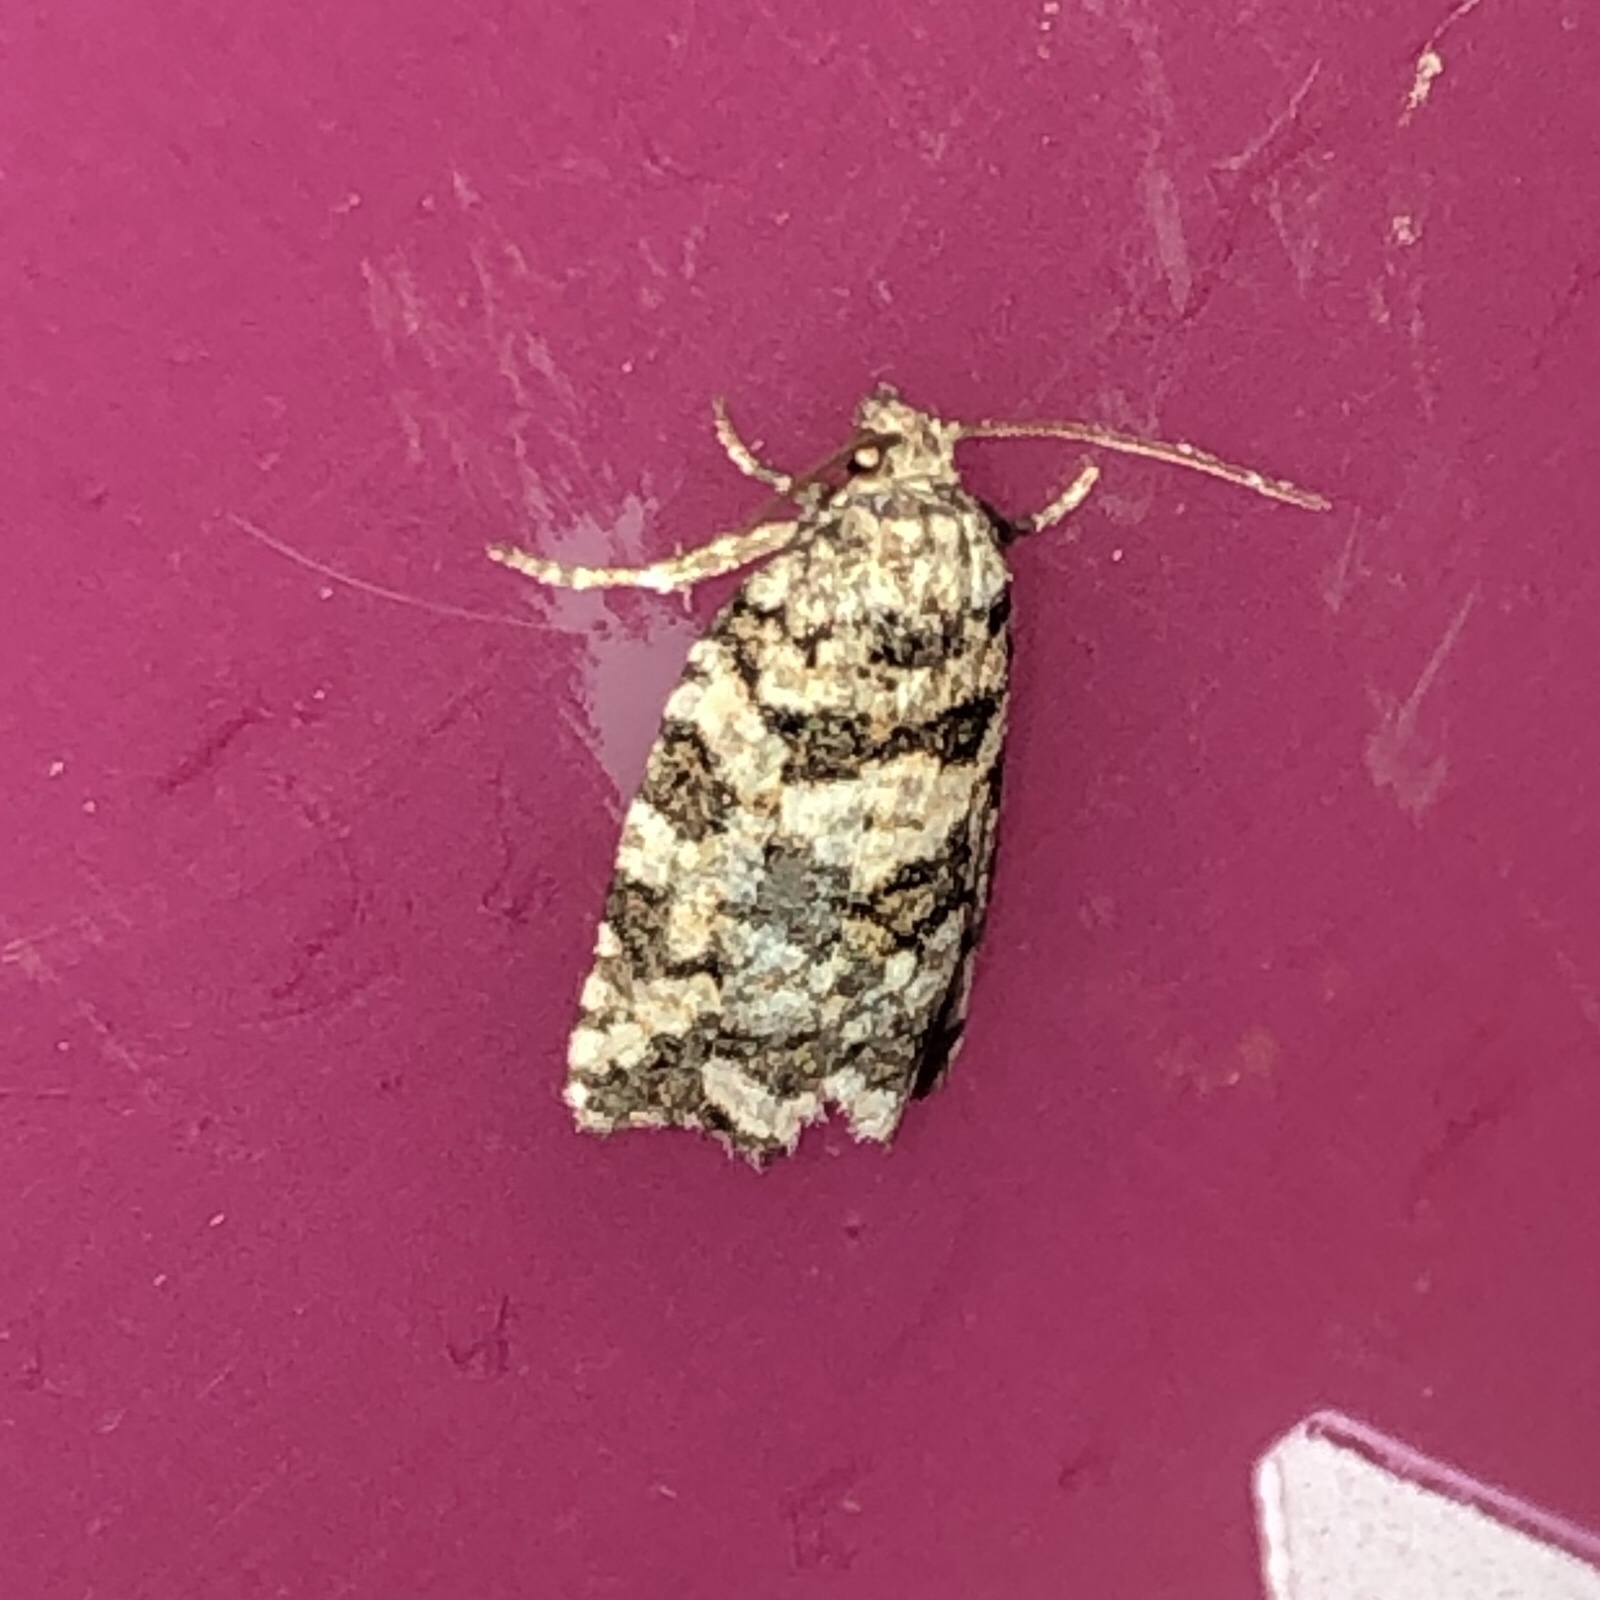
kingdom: Animalia
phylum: Arthropoda
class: Insecta
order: Lepidoptera
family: Tortricidae
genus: Archips
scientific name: Archips packardiana
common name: Spring spruce needle moth
